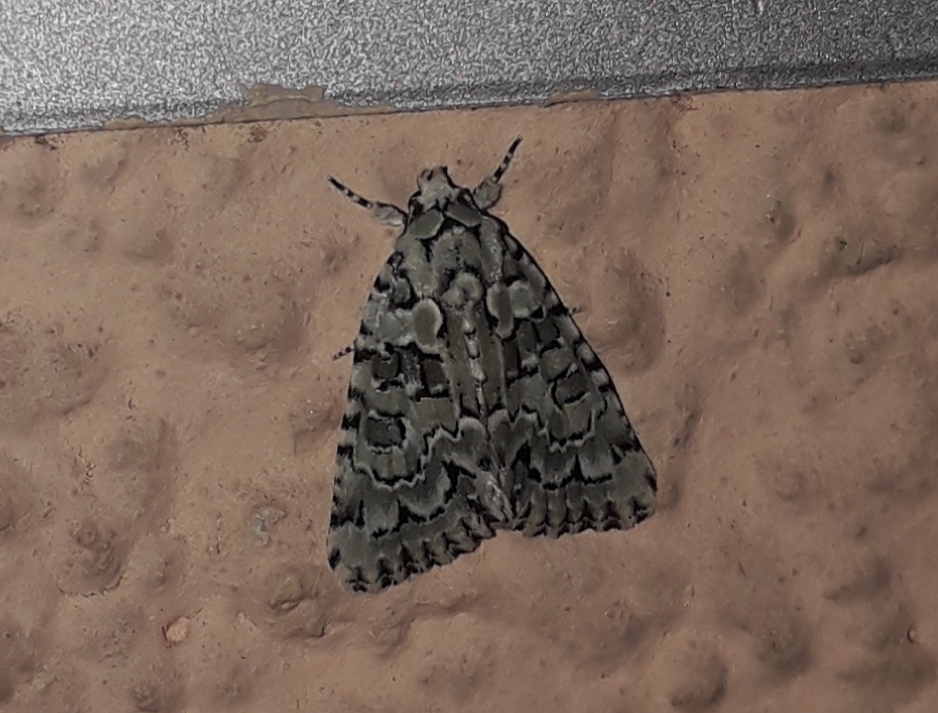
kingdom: Animalia
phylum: Arthropoda
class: Insecta
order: Lepidoptera
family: Noctuidae
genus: Nyctobrya
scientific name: Nyctobrya muralis
